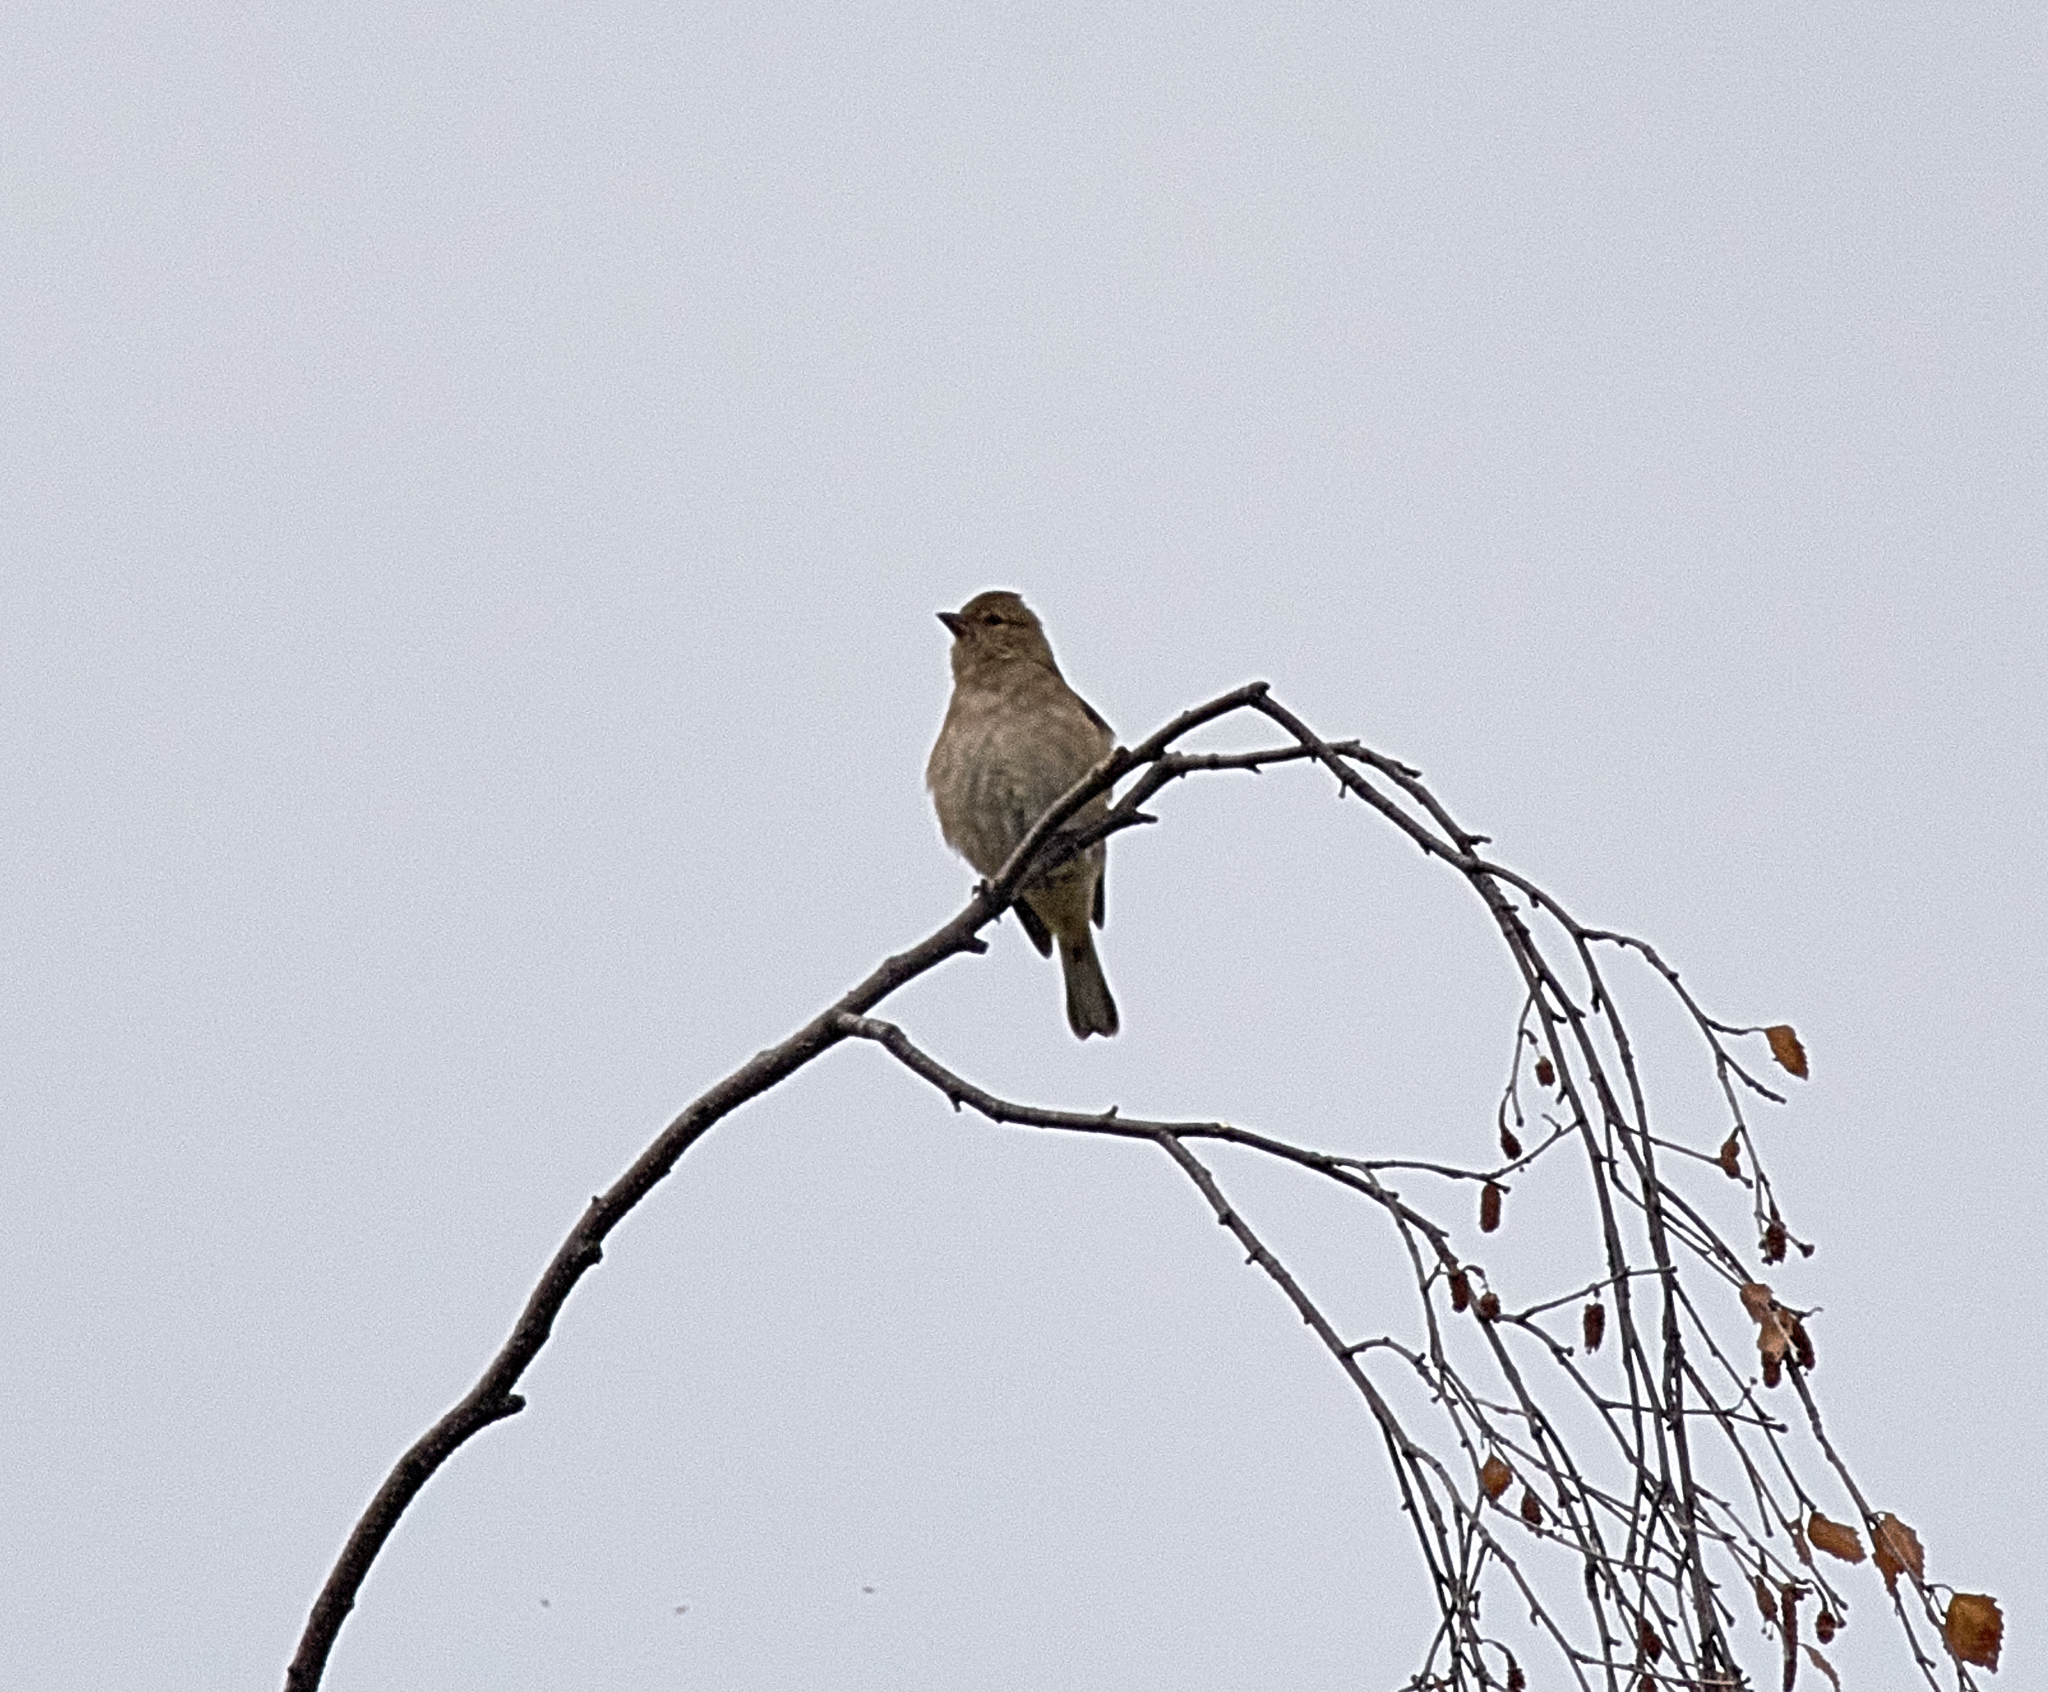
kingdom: Animalia
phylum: Chordata
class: Aves
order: Passeriformes
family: Fringillidae
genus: Fringilla
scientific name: Fringilla coelebs
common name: Common chaffinch
